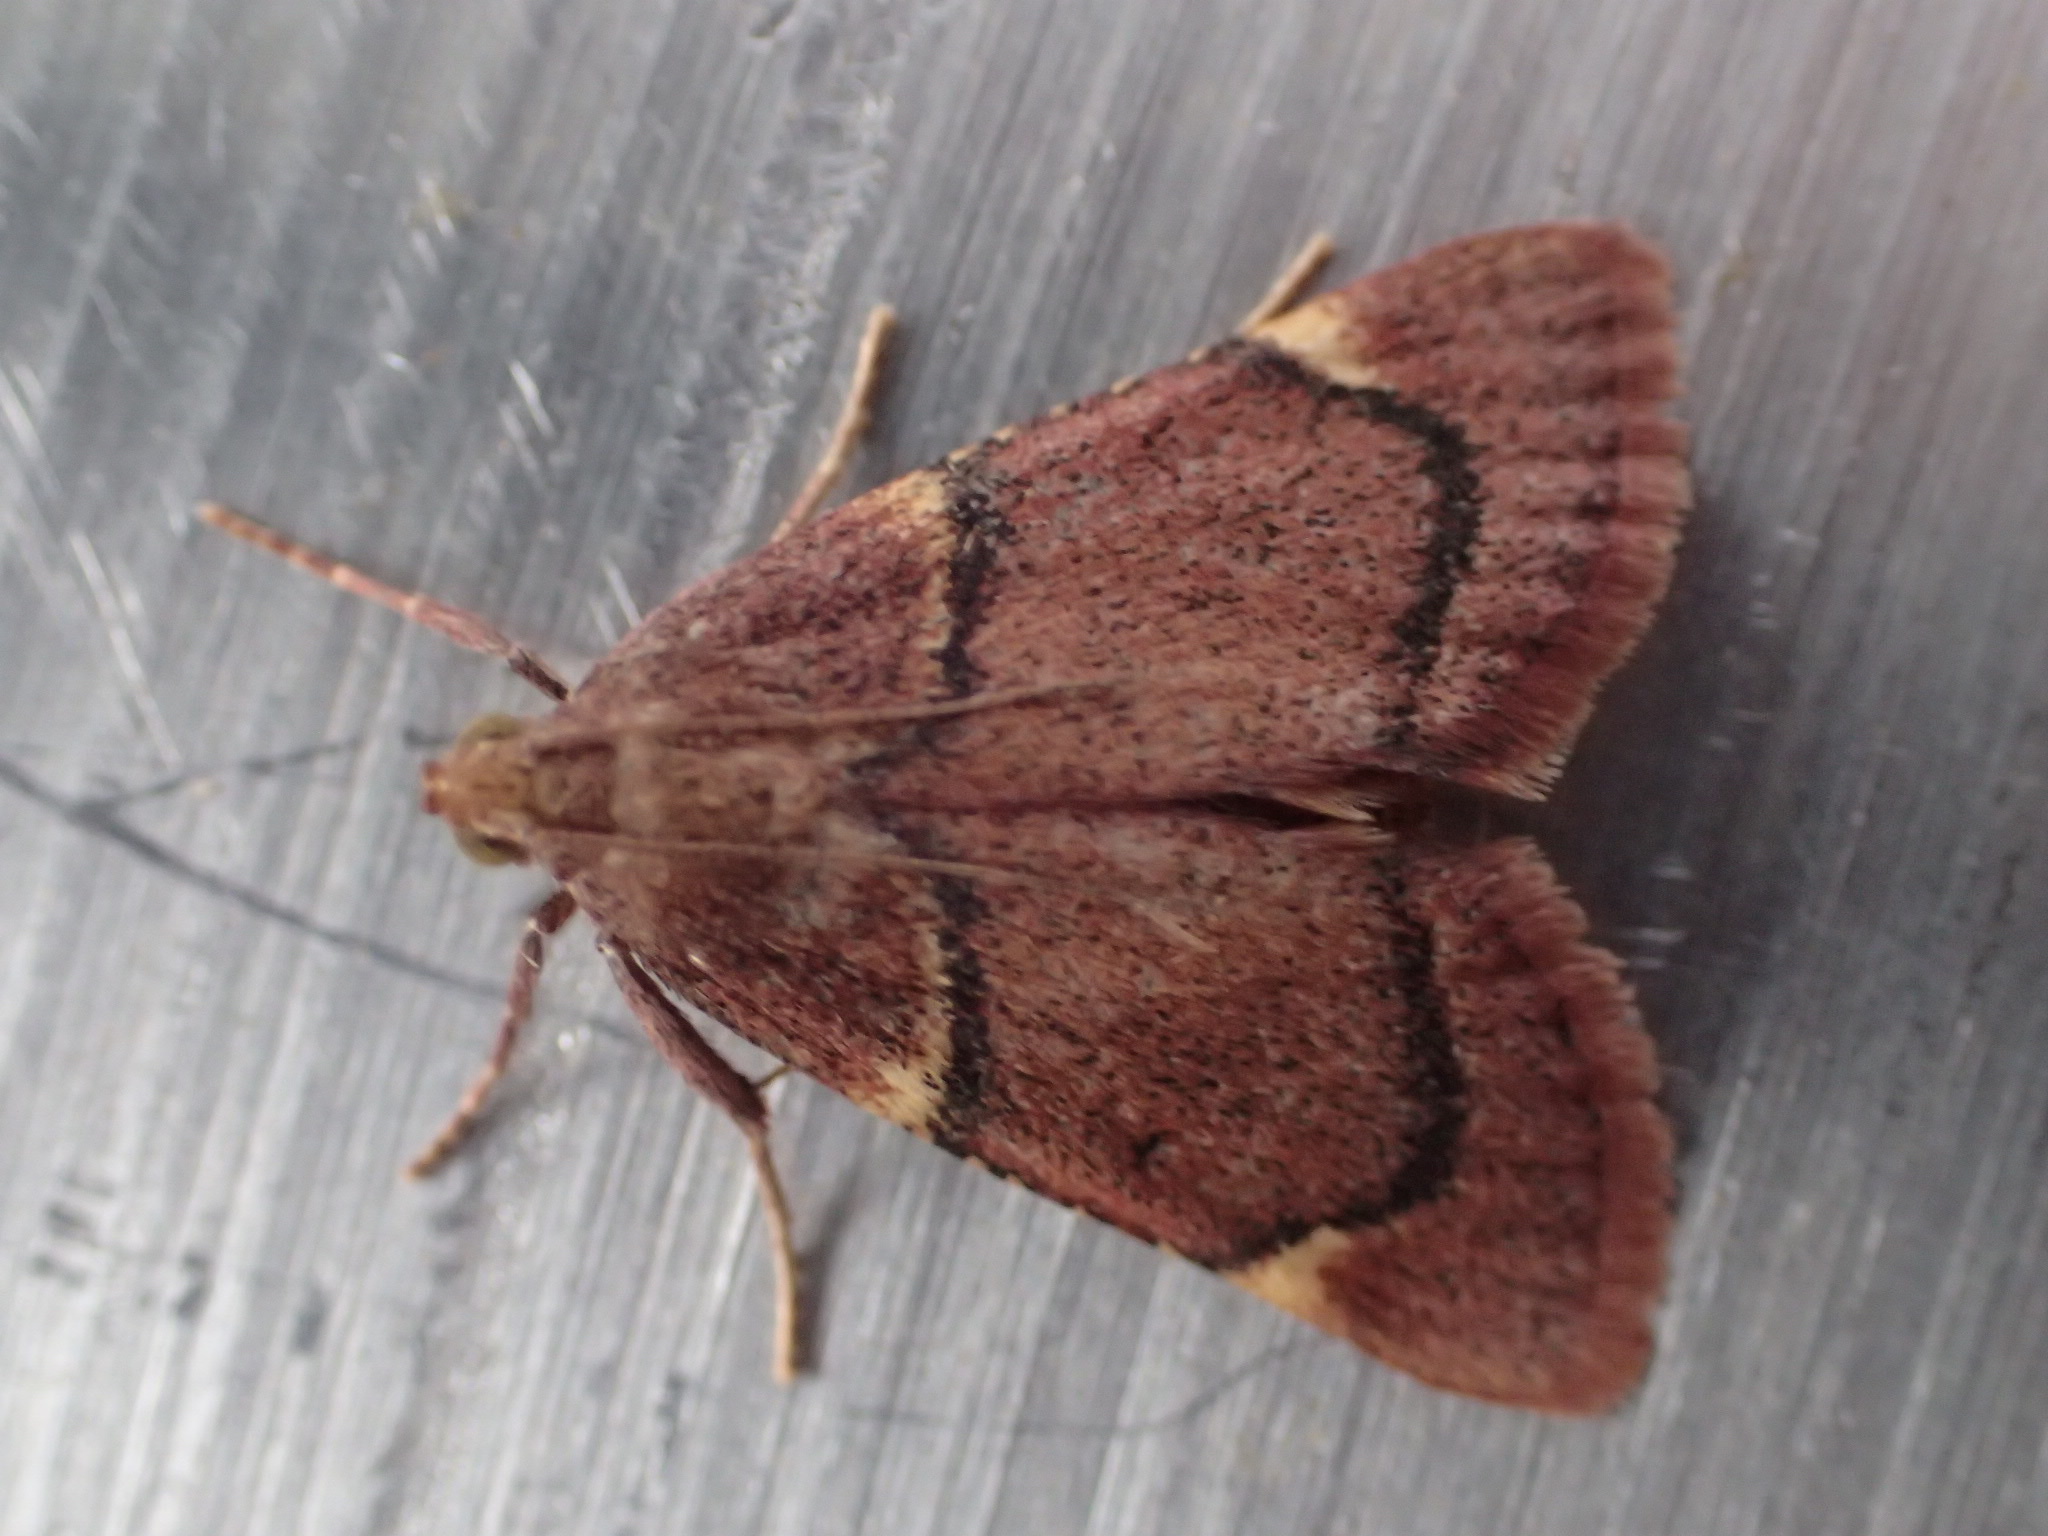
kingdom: Animalia
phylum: Arthropoda
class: Insecta
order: Lepidoptera
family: Pyralidae
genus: Hypsopygia
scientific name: Hypsopygia thymetusalis
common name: Spruce needleworm moth
